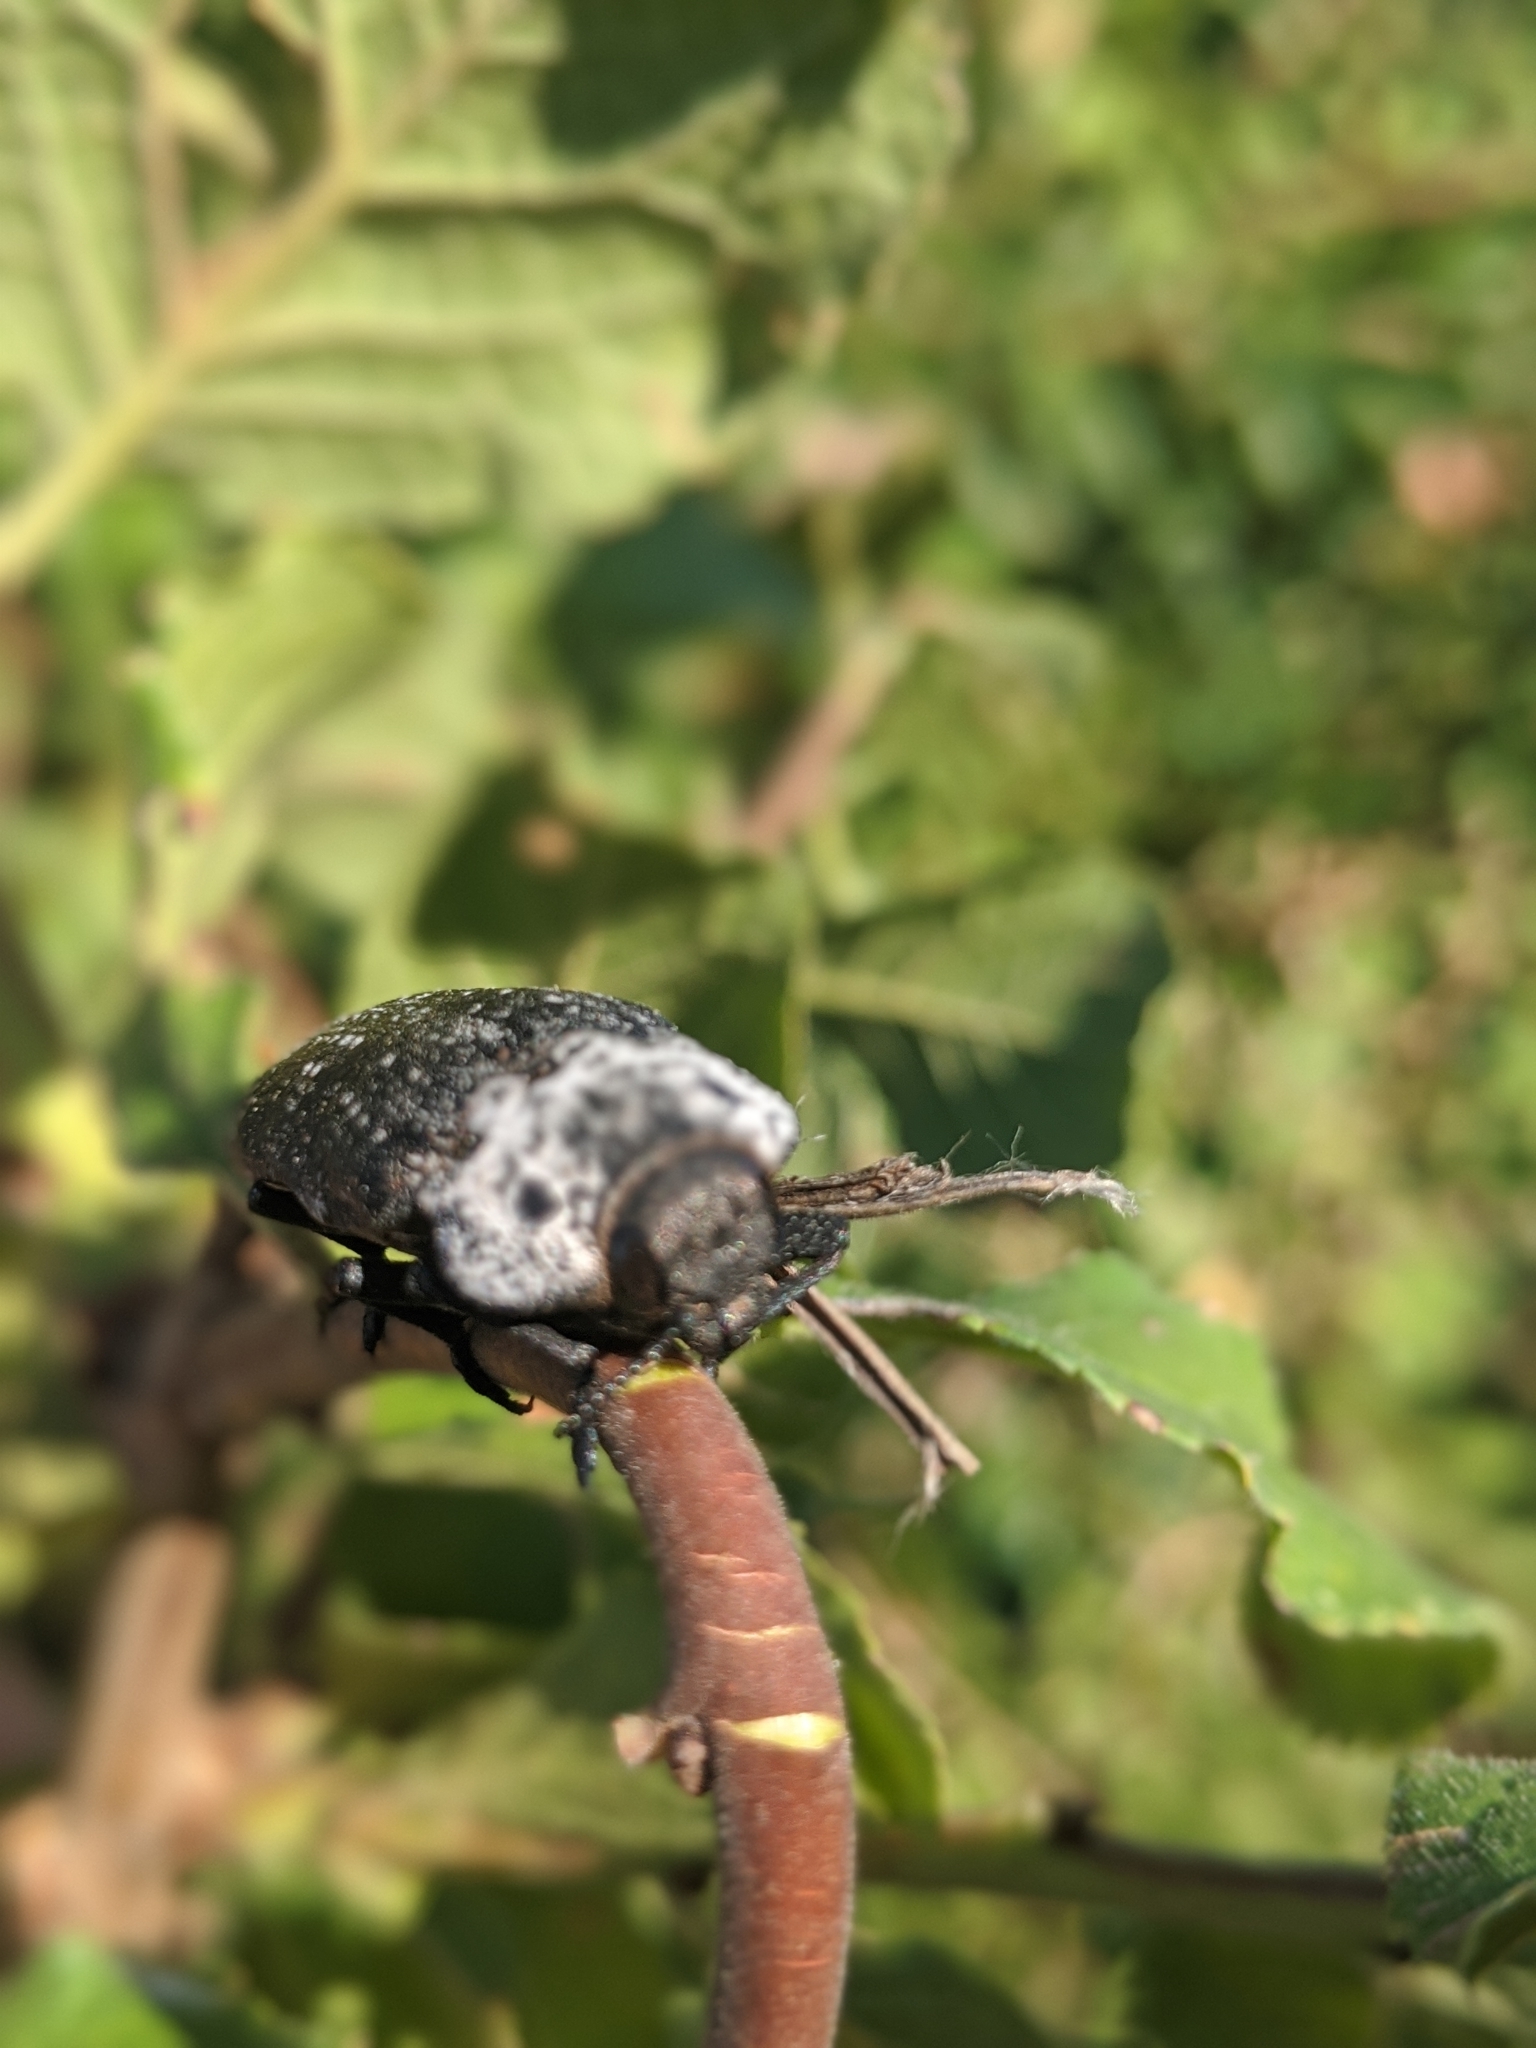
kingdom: Animalia
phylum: Arthropoda
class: Insecta
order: Coleoptera
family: Buprestidae
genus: Capnodis
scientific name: Capnodis tenebrionis
